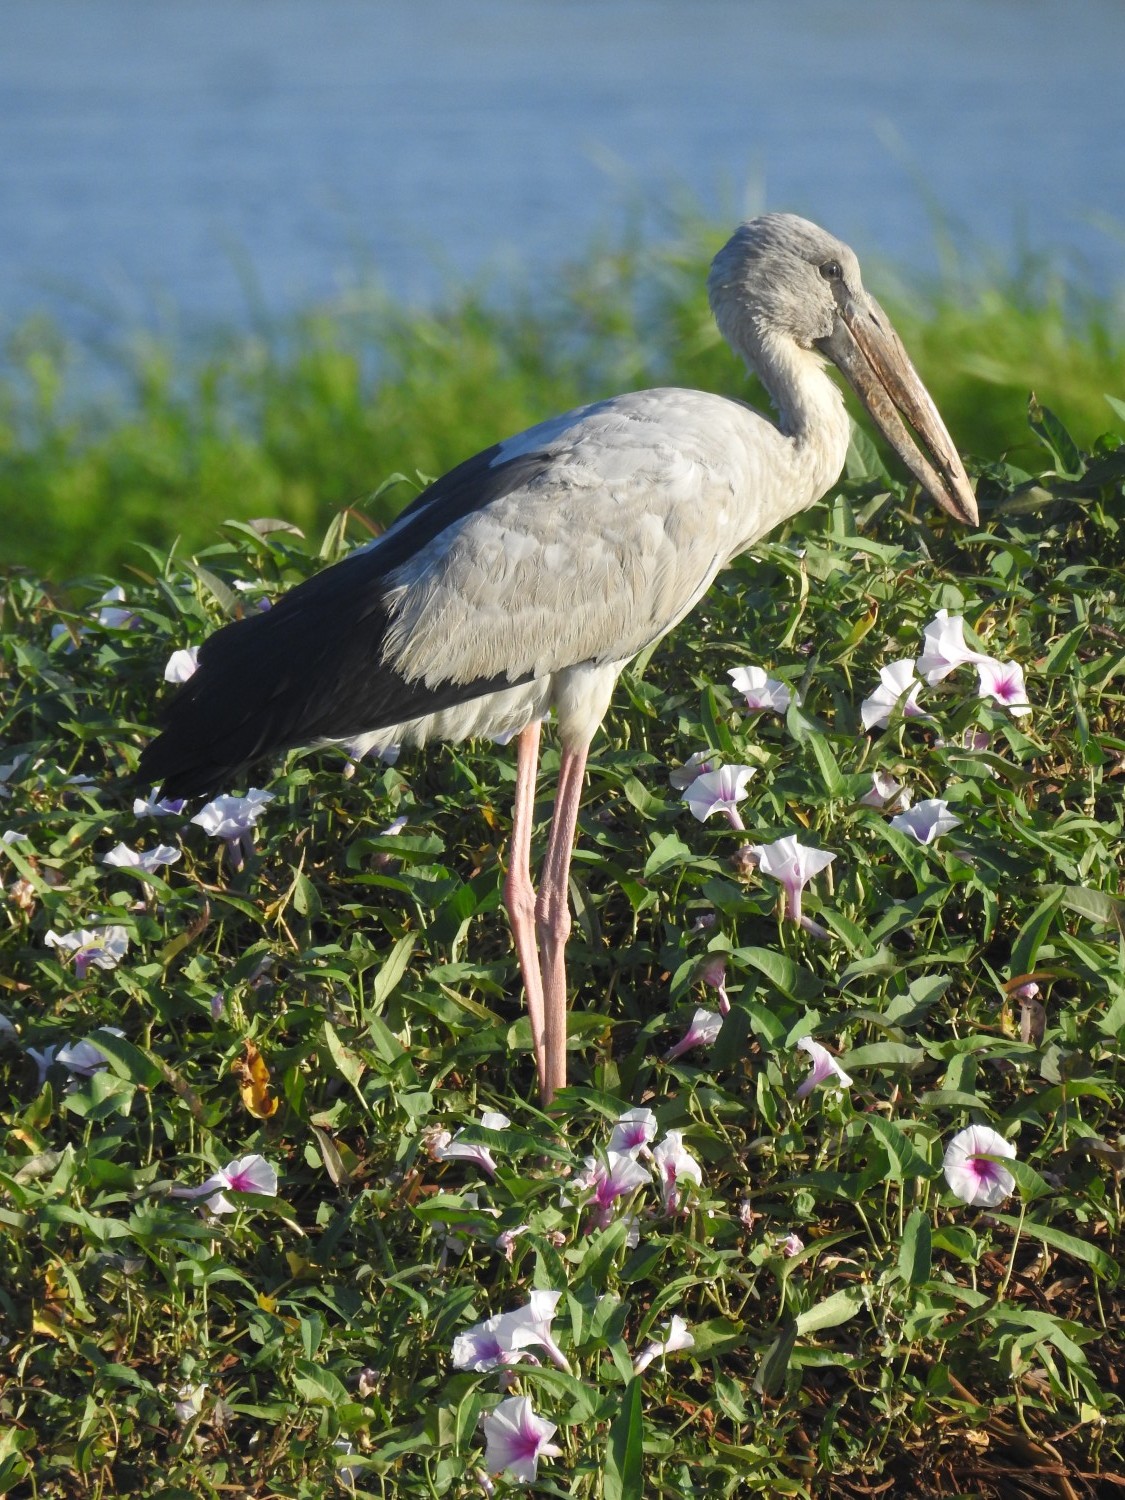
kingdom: Animalia
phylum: Chordata
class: Aves
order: Ciconiiformes
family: Ciconiidae
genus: Anastomus
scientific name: Anastomus oscitans
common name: Asian openbill
